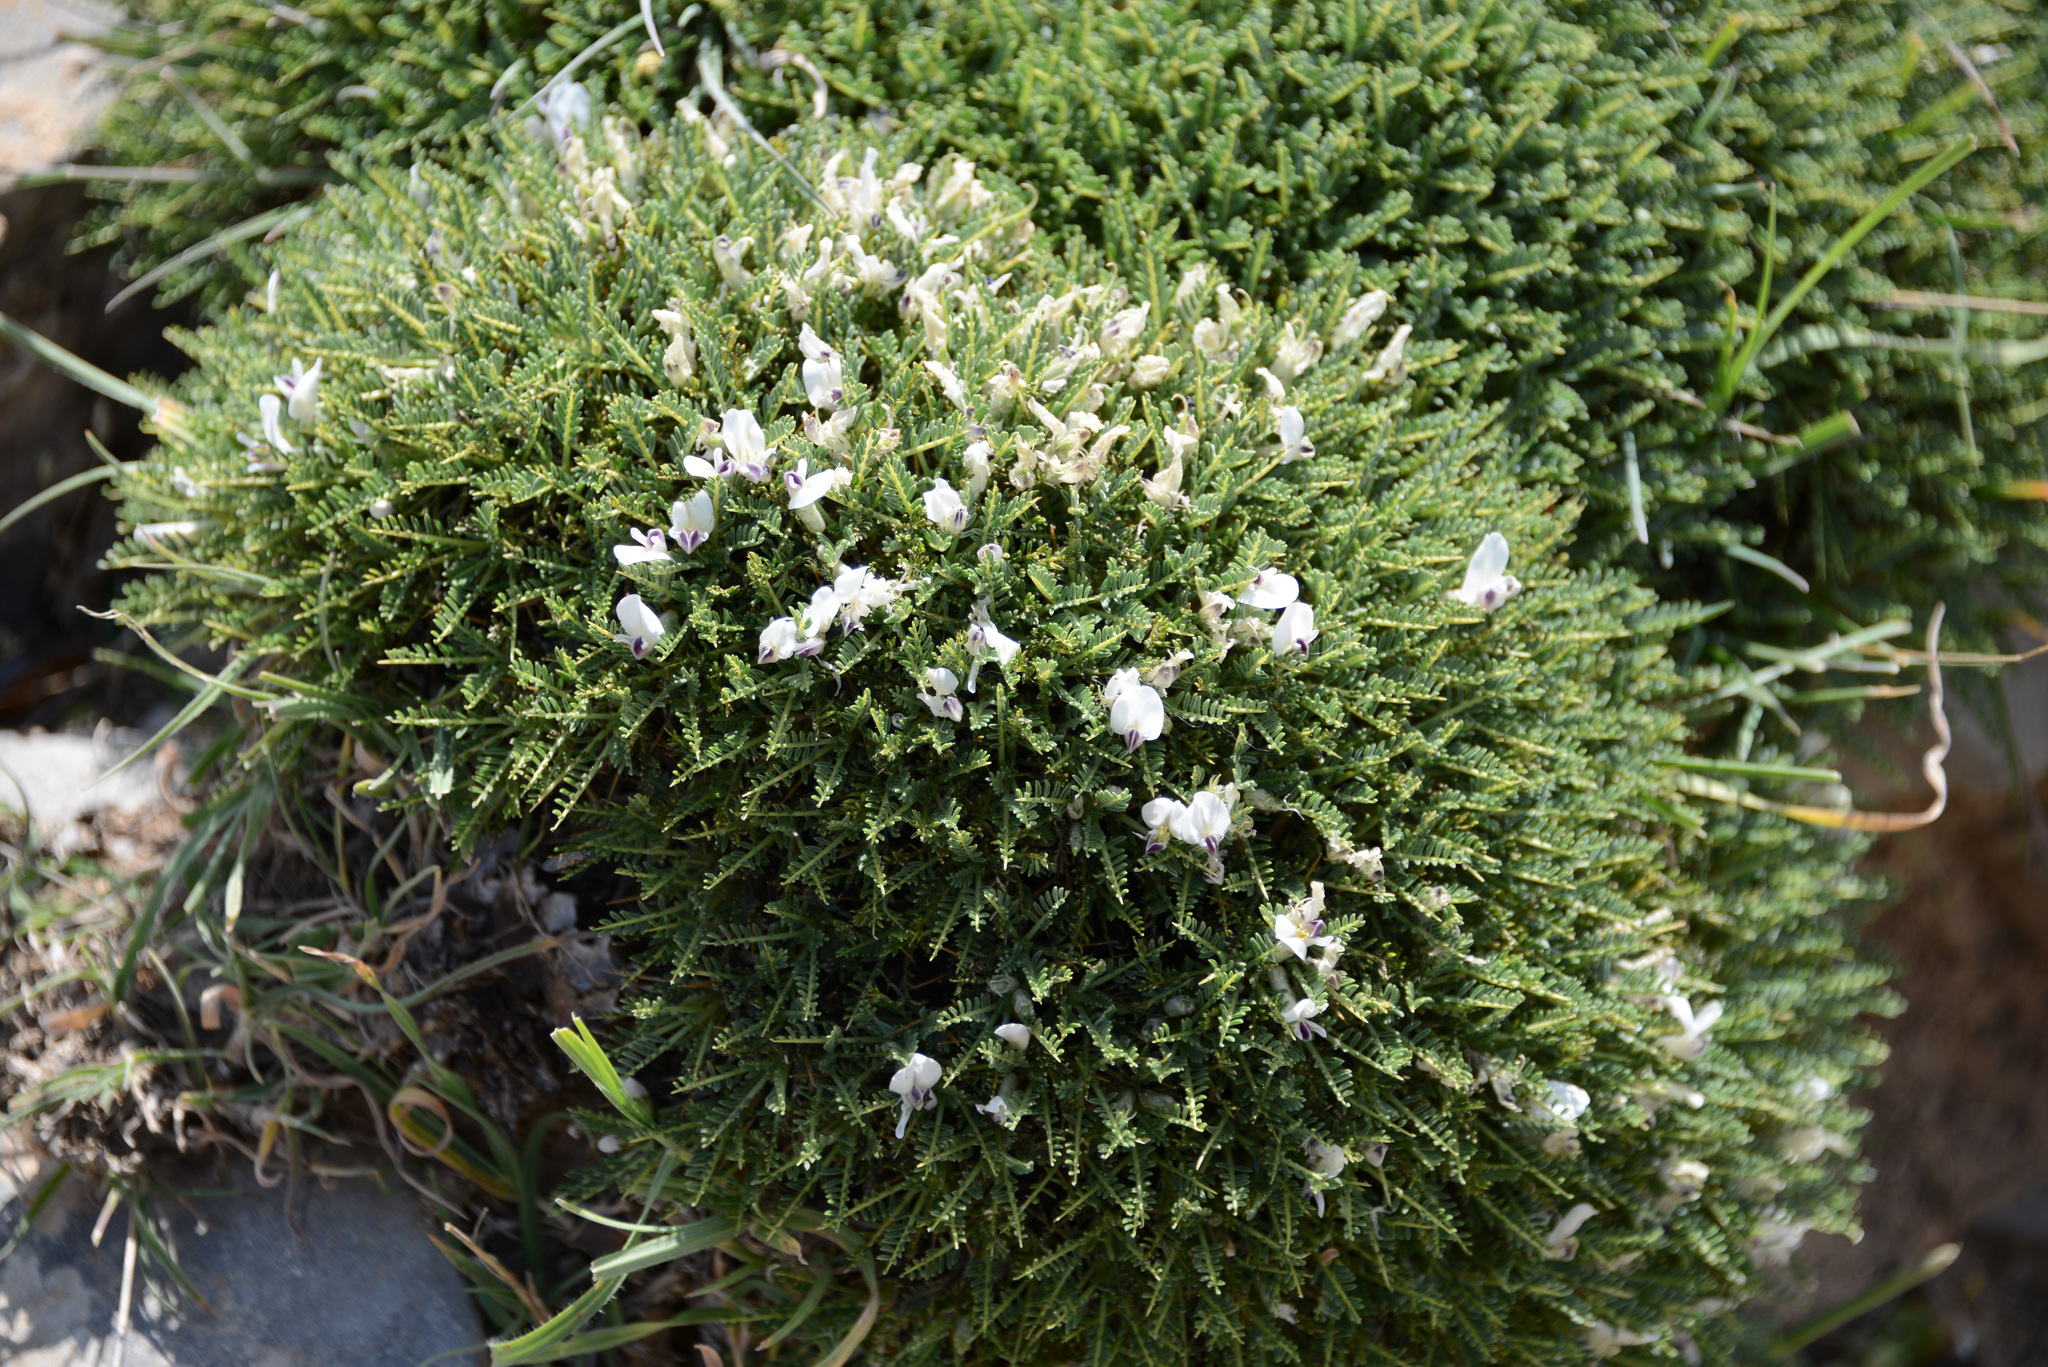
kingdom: Plantae
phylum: Tracheophyta
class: Magnoliopsida
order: Fabales
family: Fabaceae
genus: Astragalus
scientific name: Astragalus angustifolius
